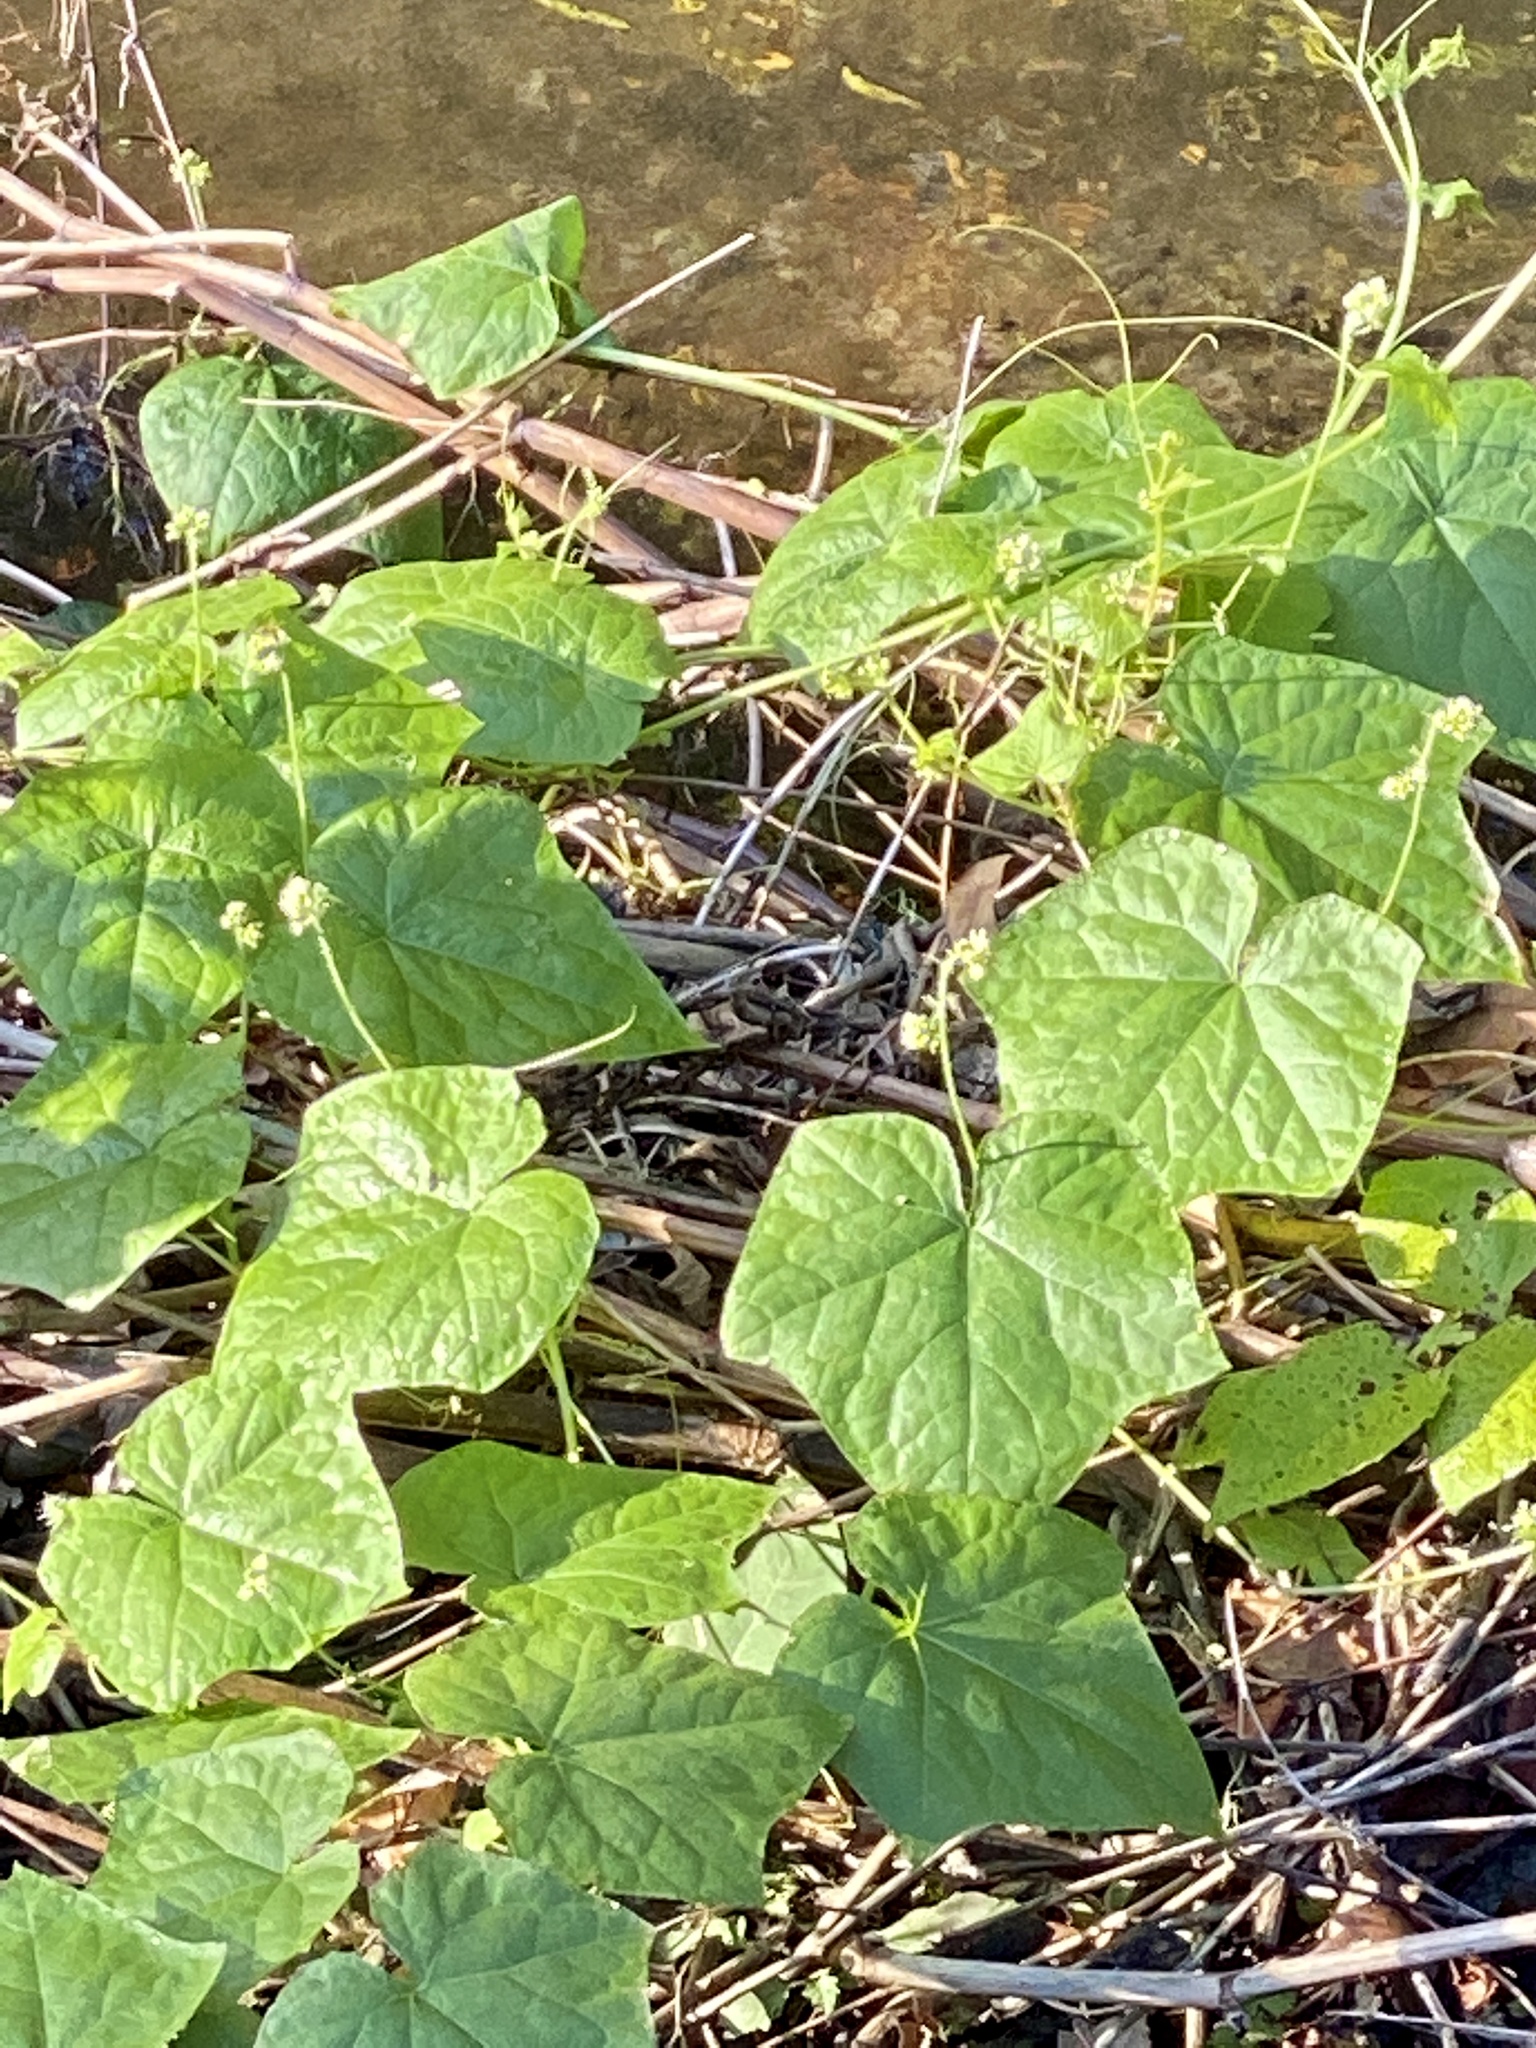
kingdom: Plantae
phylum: Tracheophyta
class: Magnoliopsida
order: Cucurbitales
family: Cucurbitaceae
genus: Sicyos
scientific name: Sicyos angulatus
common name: Angled burr cucumber
